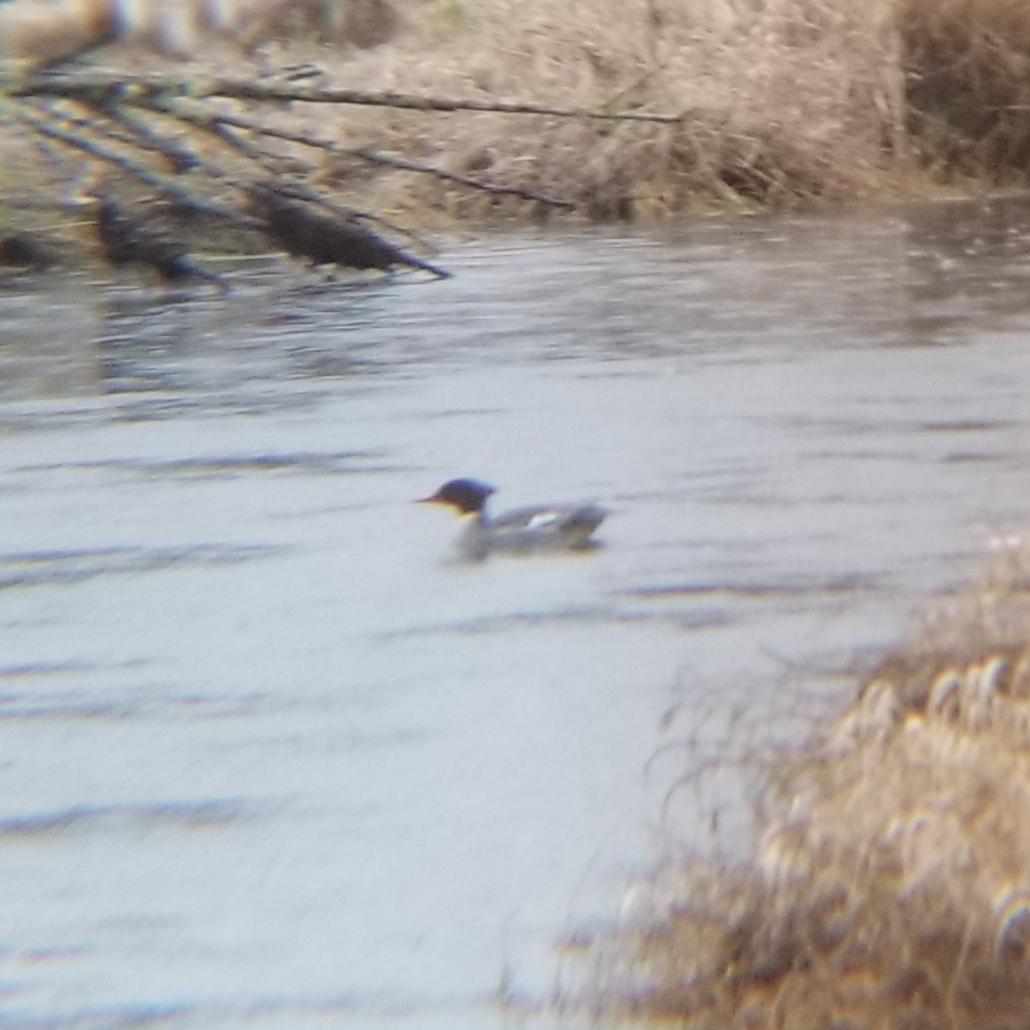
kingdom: Animalia
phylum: Chordata
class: Aves
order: Anseriformes
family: Anatidae
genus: Mergus
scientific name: Mergus merganser
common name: Common merganser
